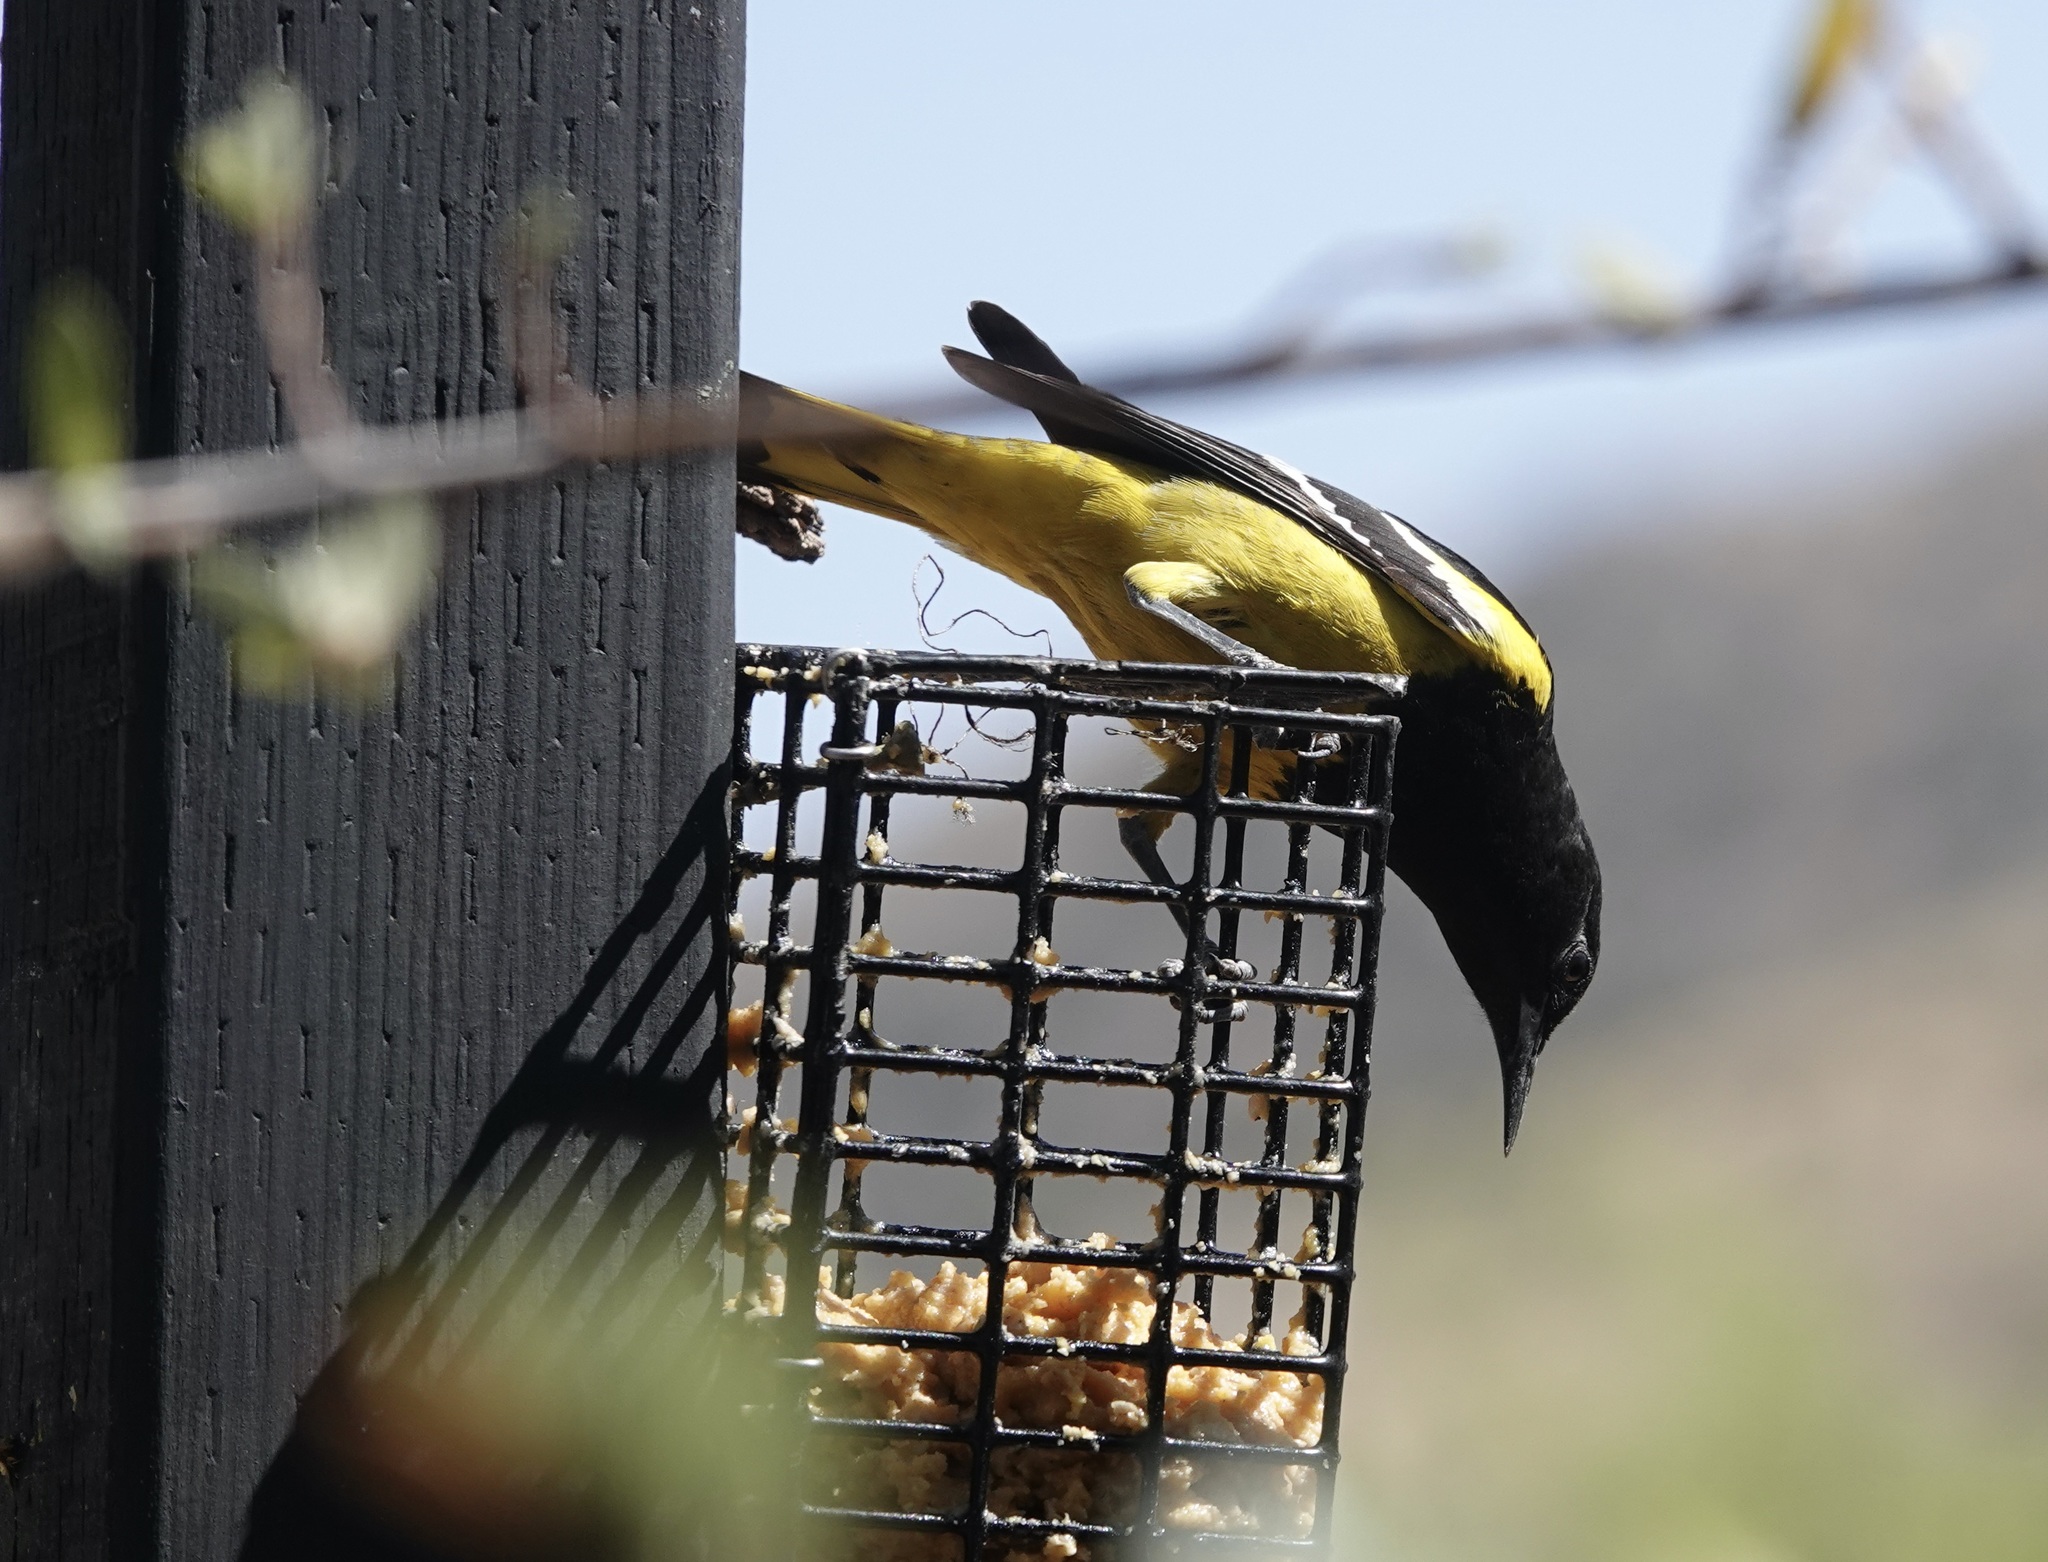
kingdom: Animalia
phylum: Chordata
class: Aves
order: Passeriformes
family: Icteridae
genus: Icterus
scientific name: Icterus parisorum
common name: Scott's oriole
